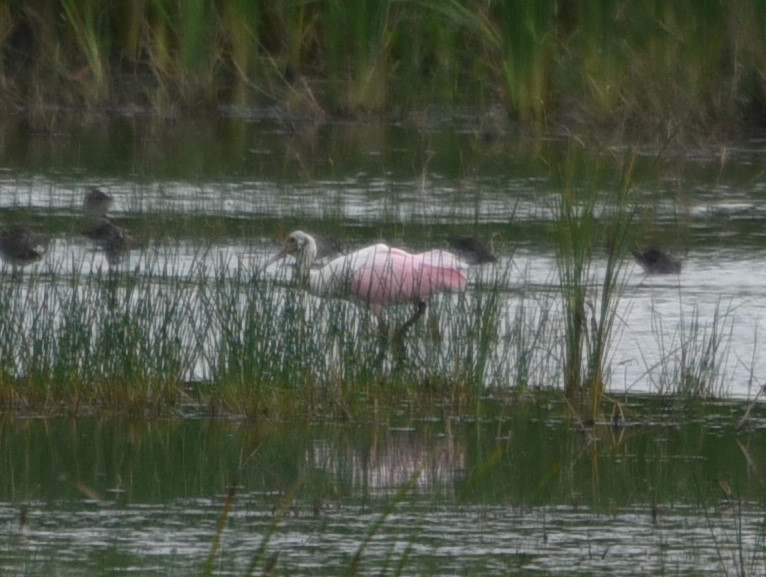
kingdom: Animalia
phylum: Chordata
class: Aves
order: Pelecaniformes
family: Threskiornithidae
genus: Platalea
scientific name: Platalea ajaja
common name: Roseate spoonbill
